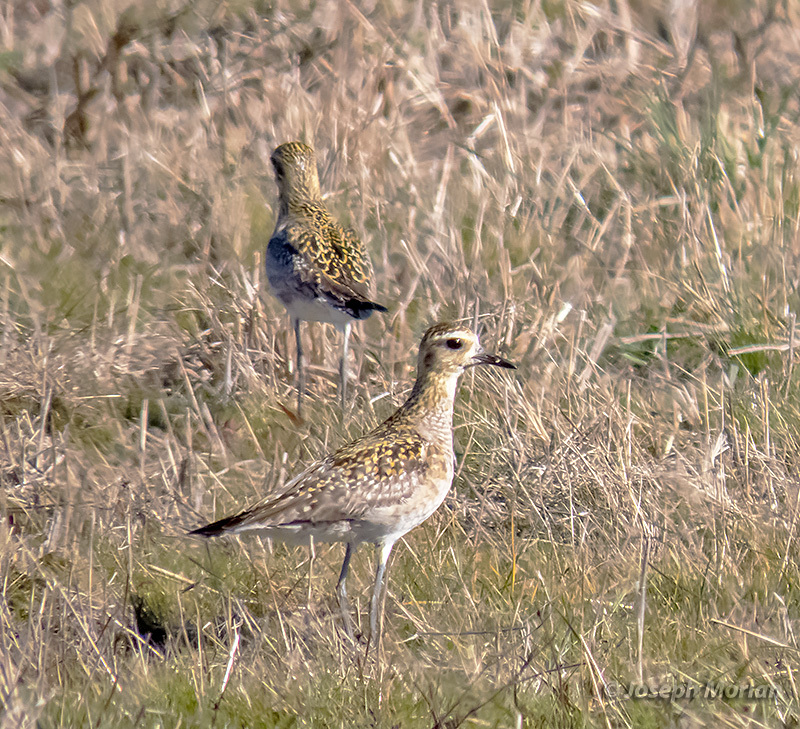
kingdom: Animalia
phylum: Chordata
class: Aves
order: Charadriiformes
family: Charadriidae
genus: Pluvialis
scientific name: Pluvialis fulva
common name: Pacific golden plover
